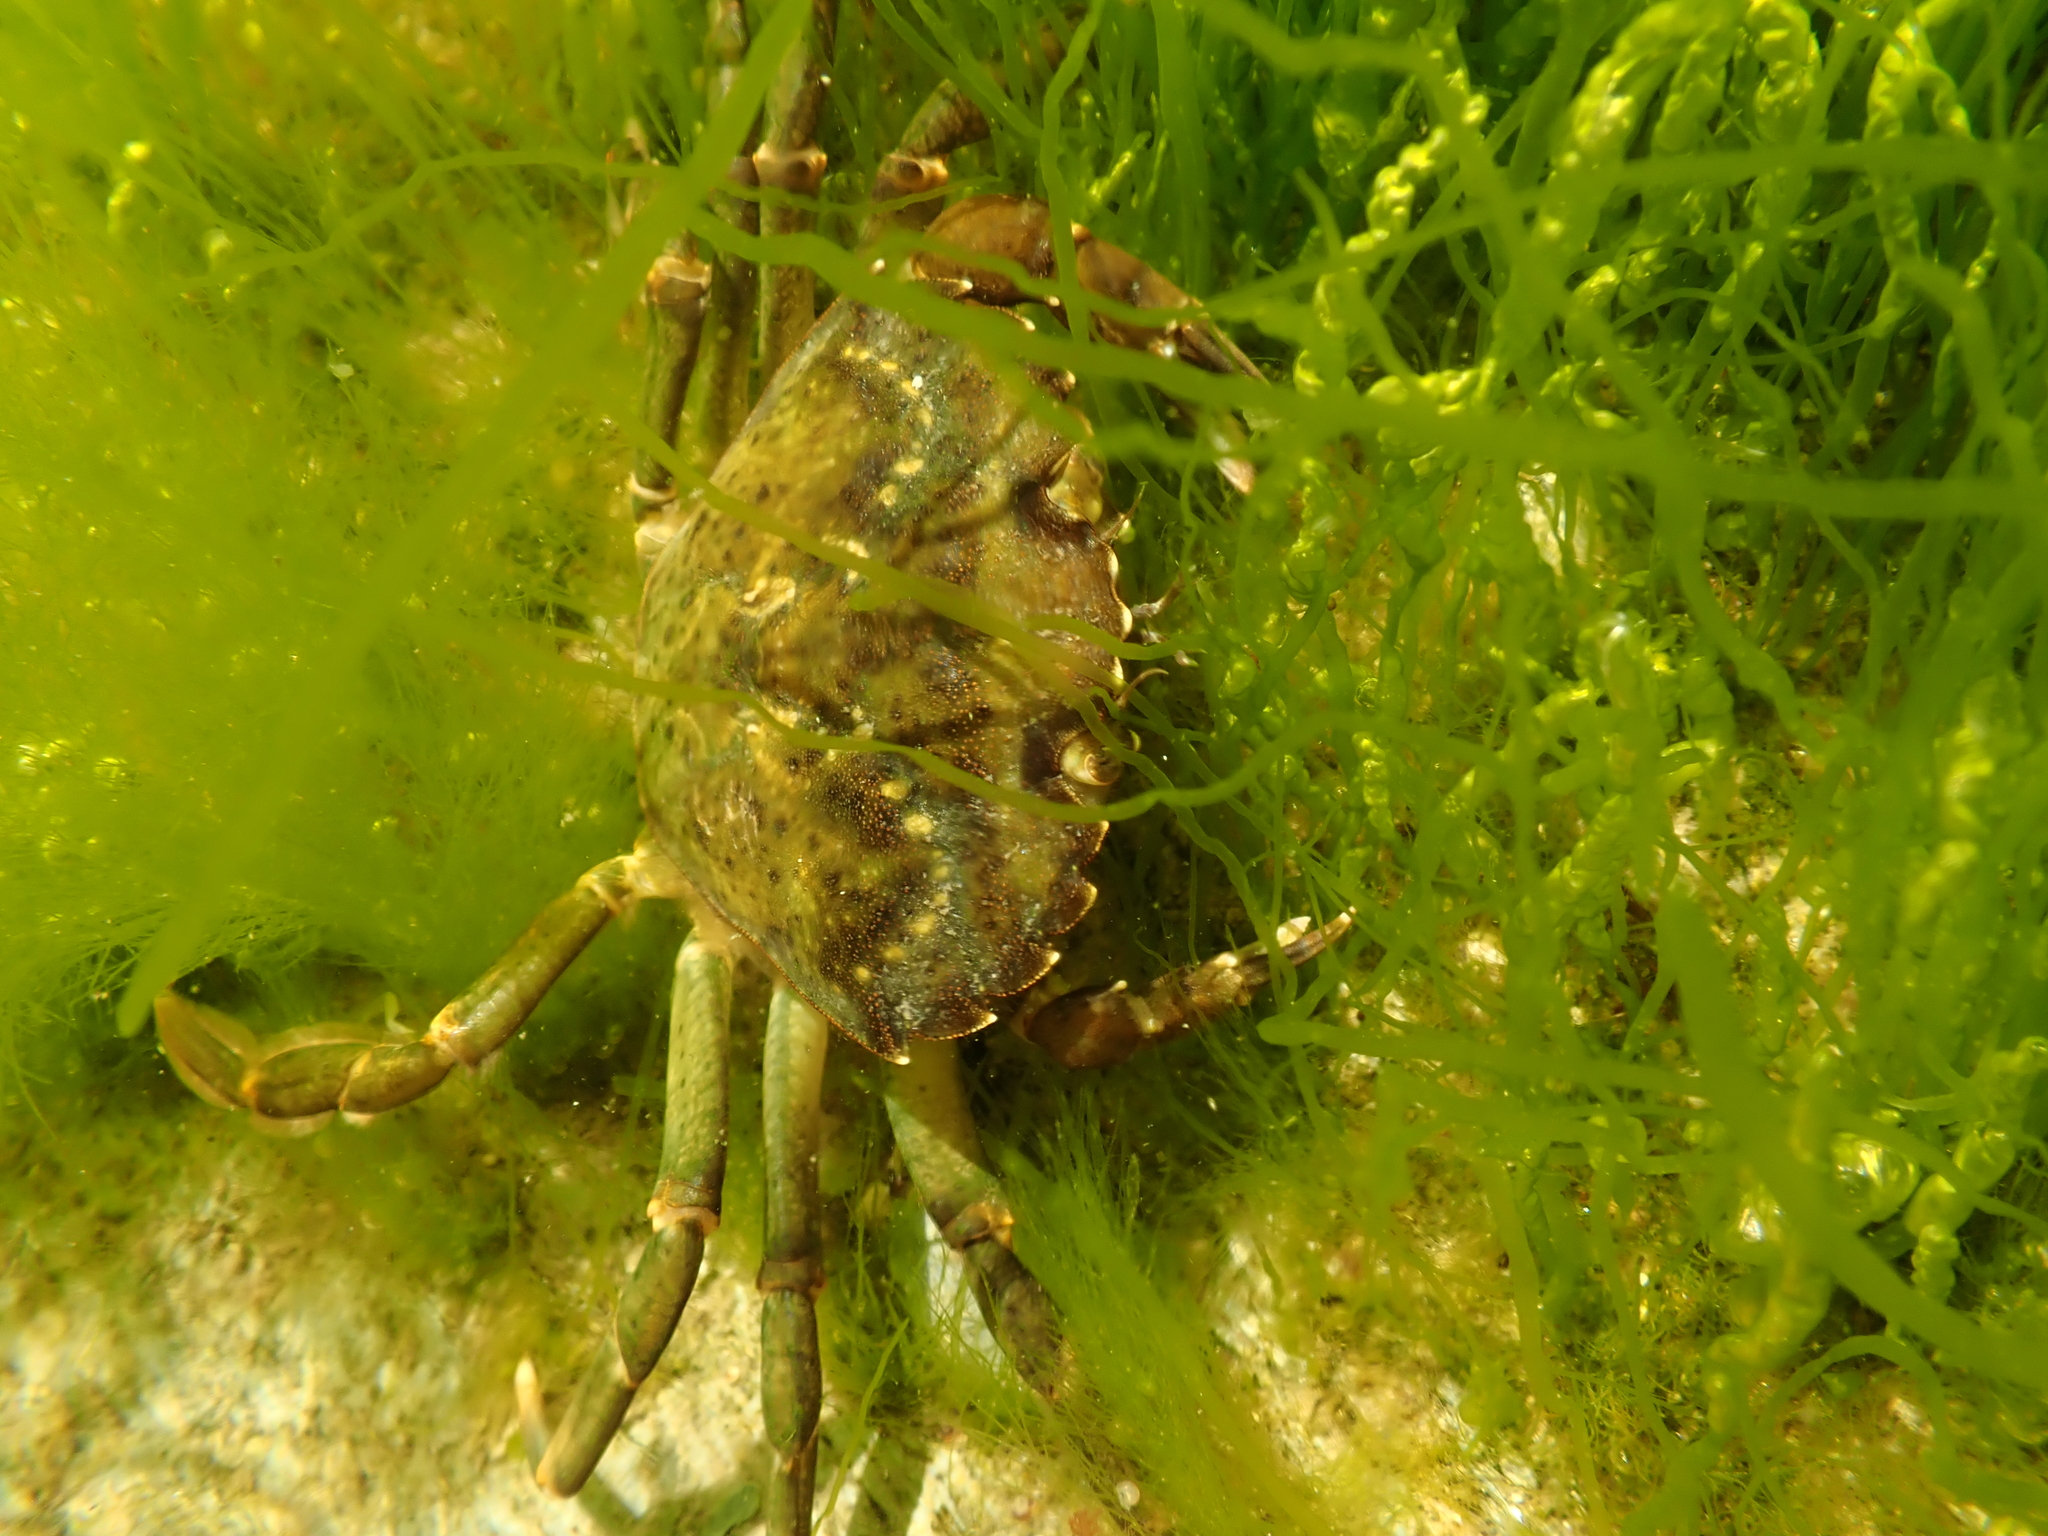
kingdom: Animalia
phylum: Arthropoda
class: Malacostraca
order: Decapoda
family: Carcinidae
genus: Carcinus
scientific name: Carcinus maenas
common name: European green crab
